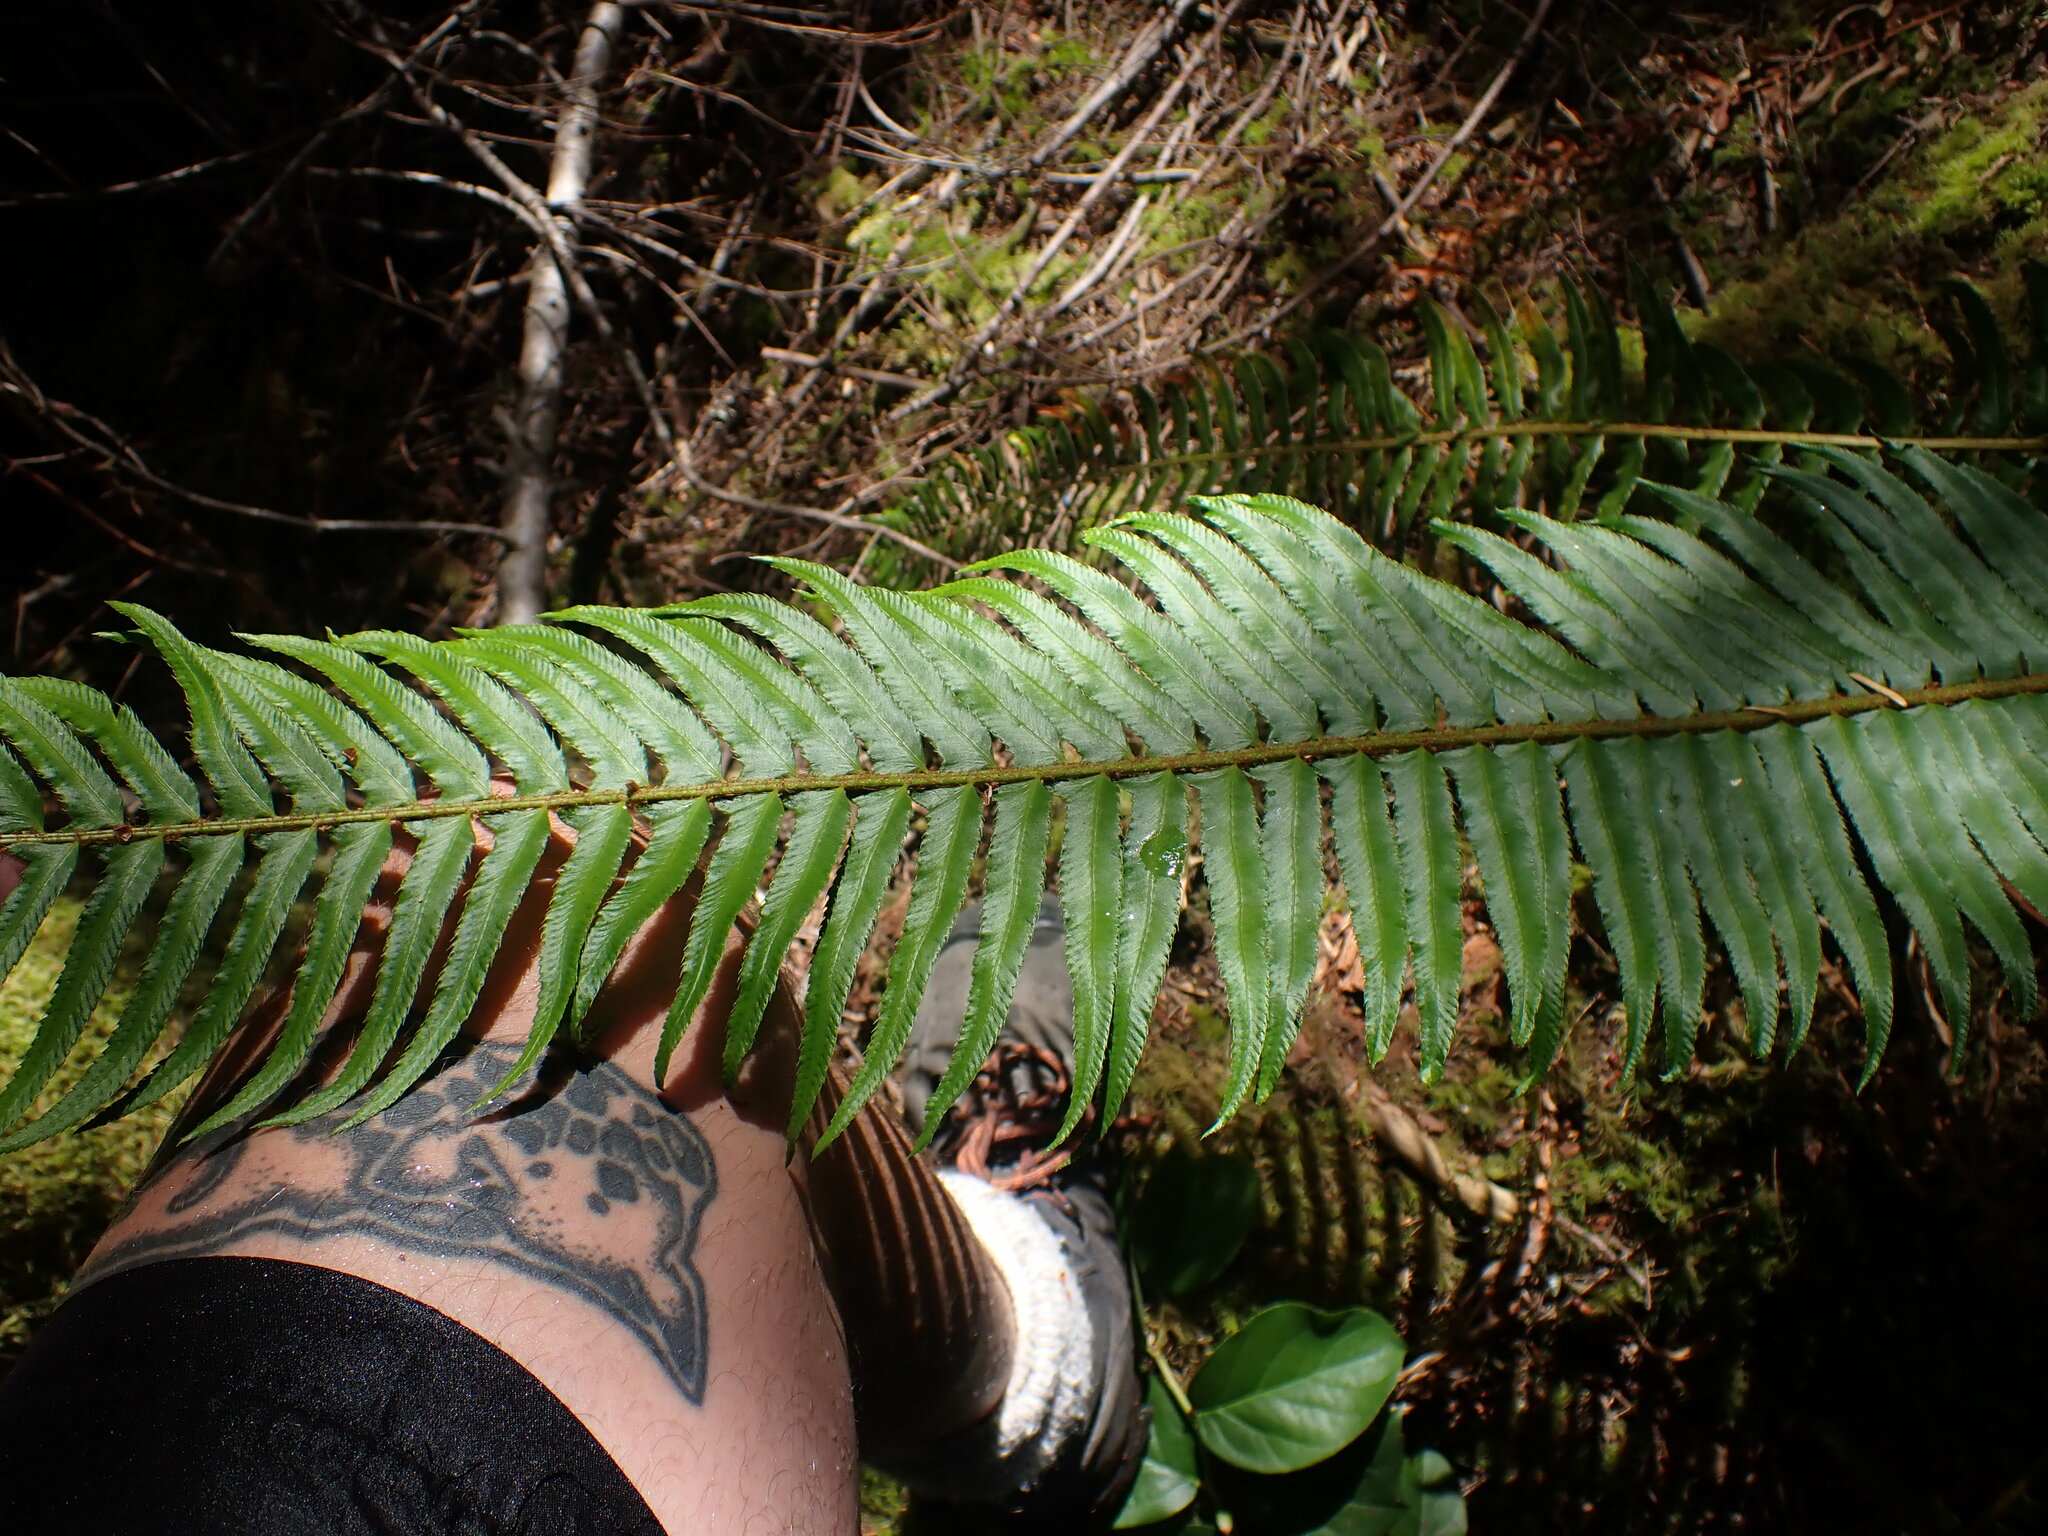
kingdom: Plantae
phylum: Tracheophyta
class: Polypodiopsida
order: Polypodiales
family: Dryopteridaceae
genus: Polystichum
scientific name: Polystichum munitum
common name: Western sword-fern
